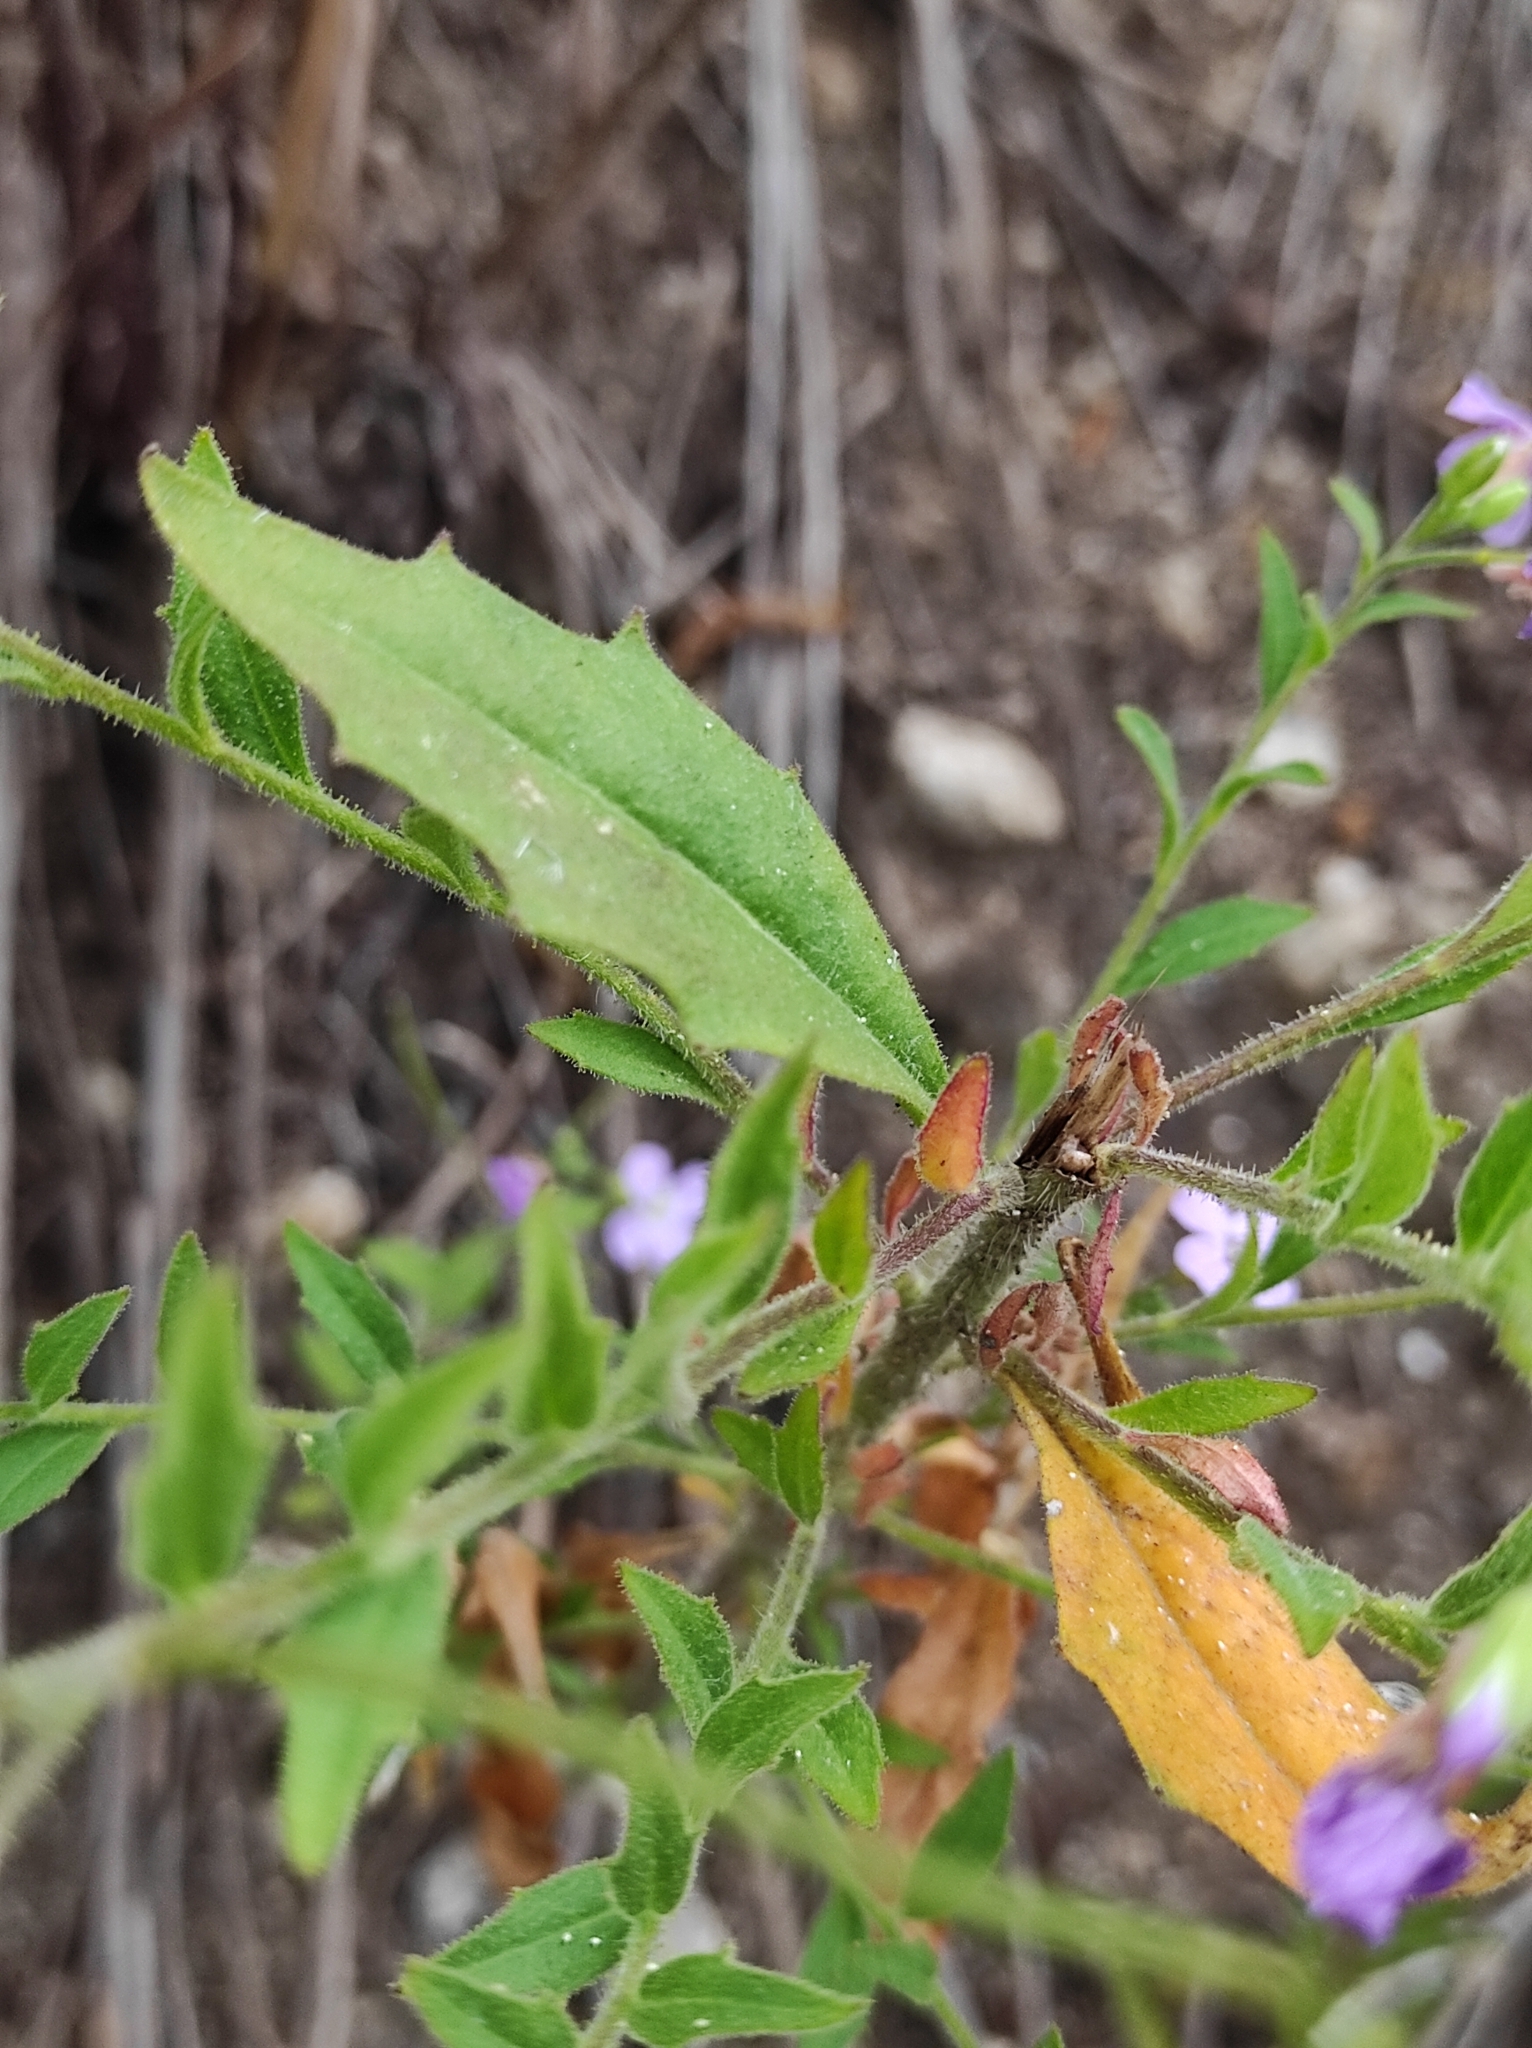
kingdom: Plantae
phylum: Tracheophyta
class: Magnoliopsida
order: Brassicales
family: Brassicaceae
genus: Dontostemon
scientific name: Dontostemon hispidus
